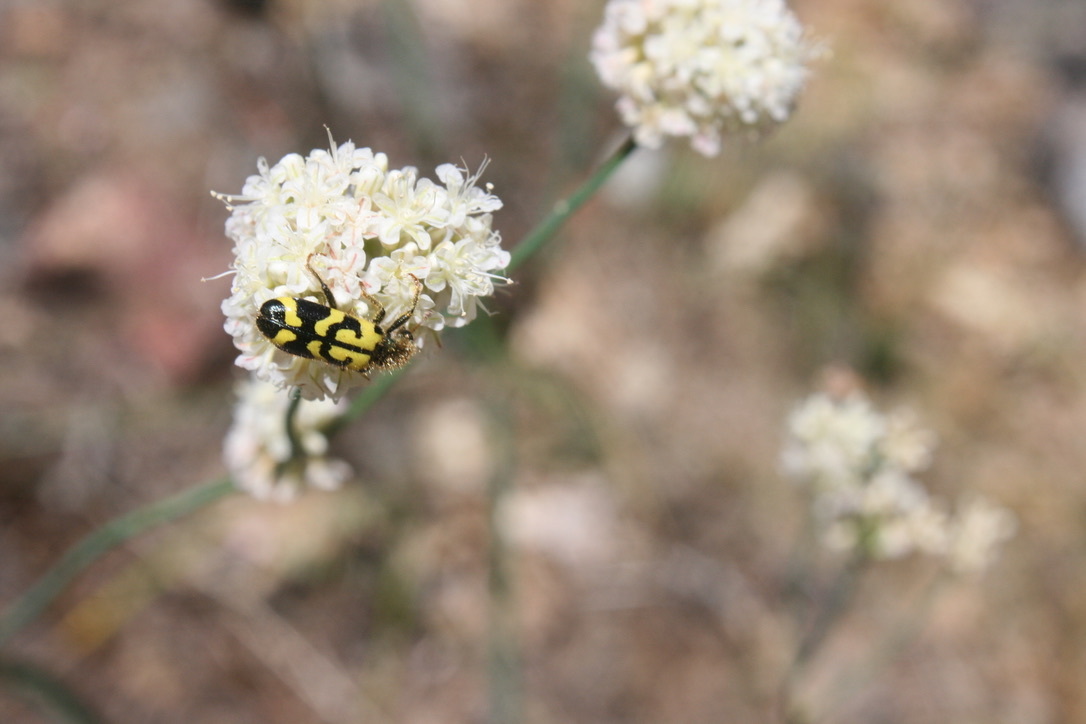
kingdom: Animalia
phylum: Arthropoda
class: Insecta
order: Coleoptera
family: Cleridae
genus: Trichodes
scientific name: Trichodes ornatus
